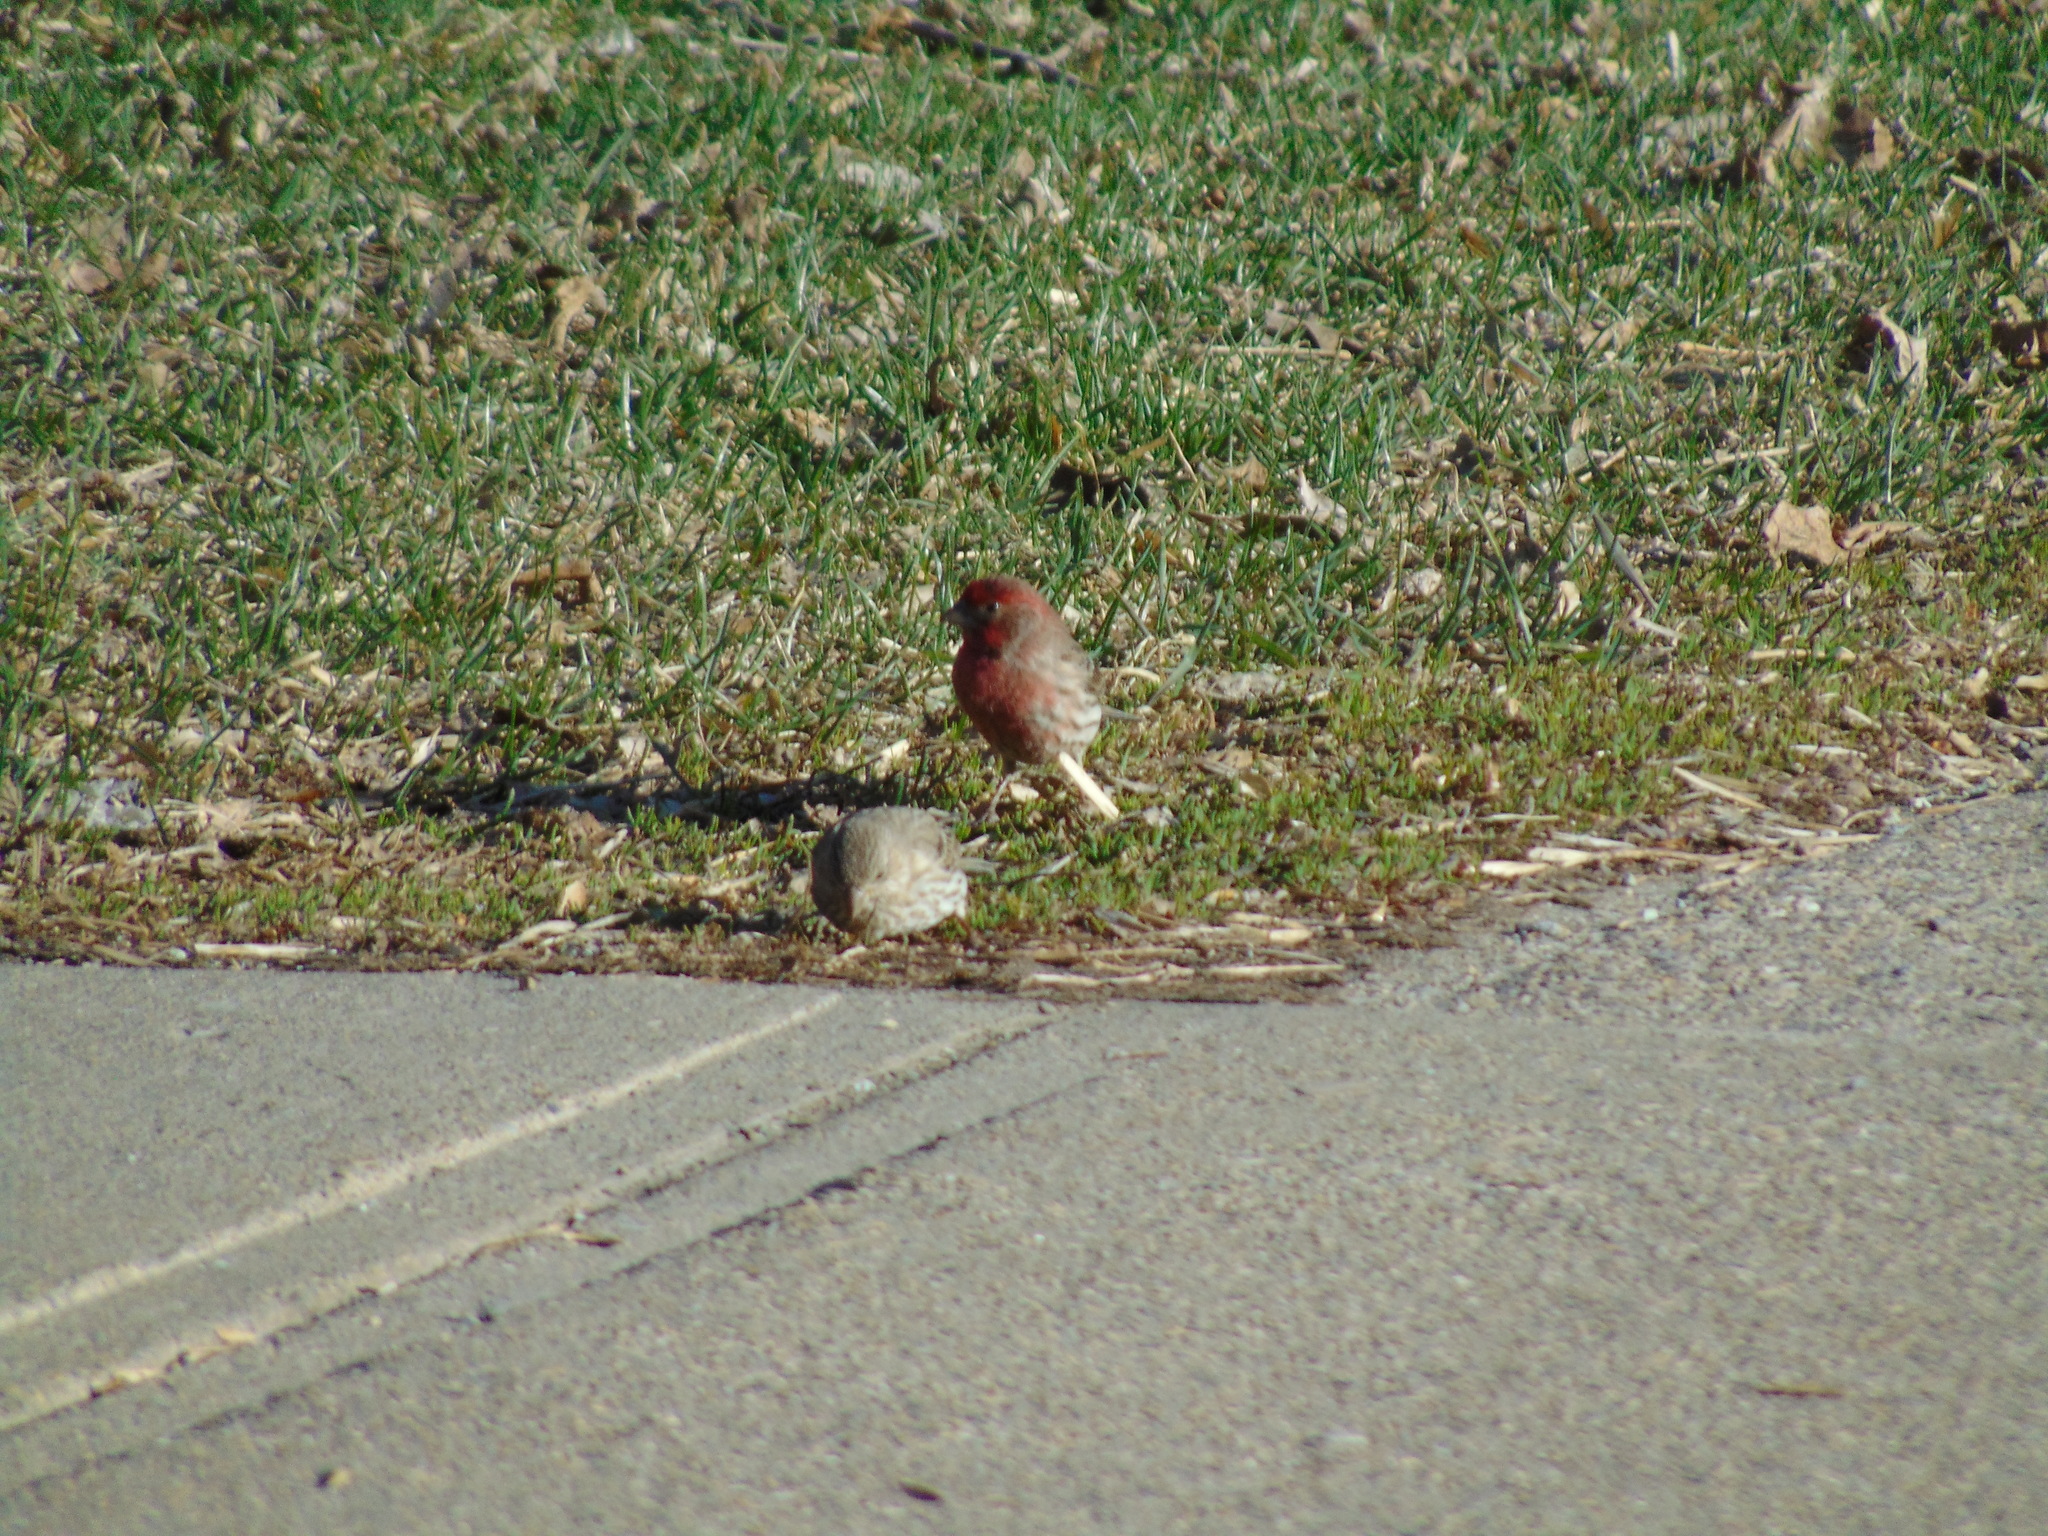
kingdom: Animalia
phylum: Chordata
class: Aves
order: Passeriformes
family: Fringillidae
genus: Haemorhous
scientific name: Haemorhous mexicanus
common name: House finch
